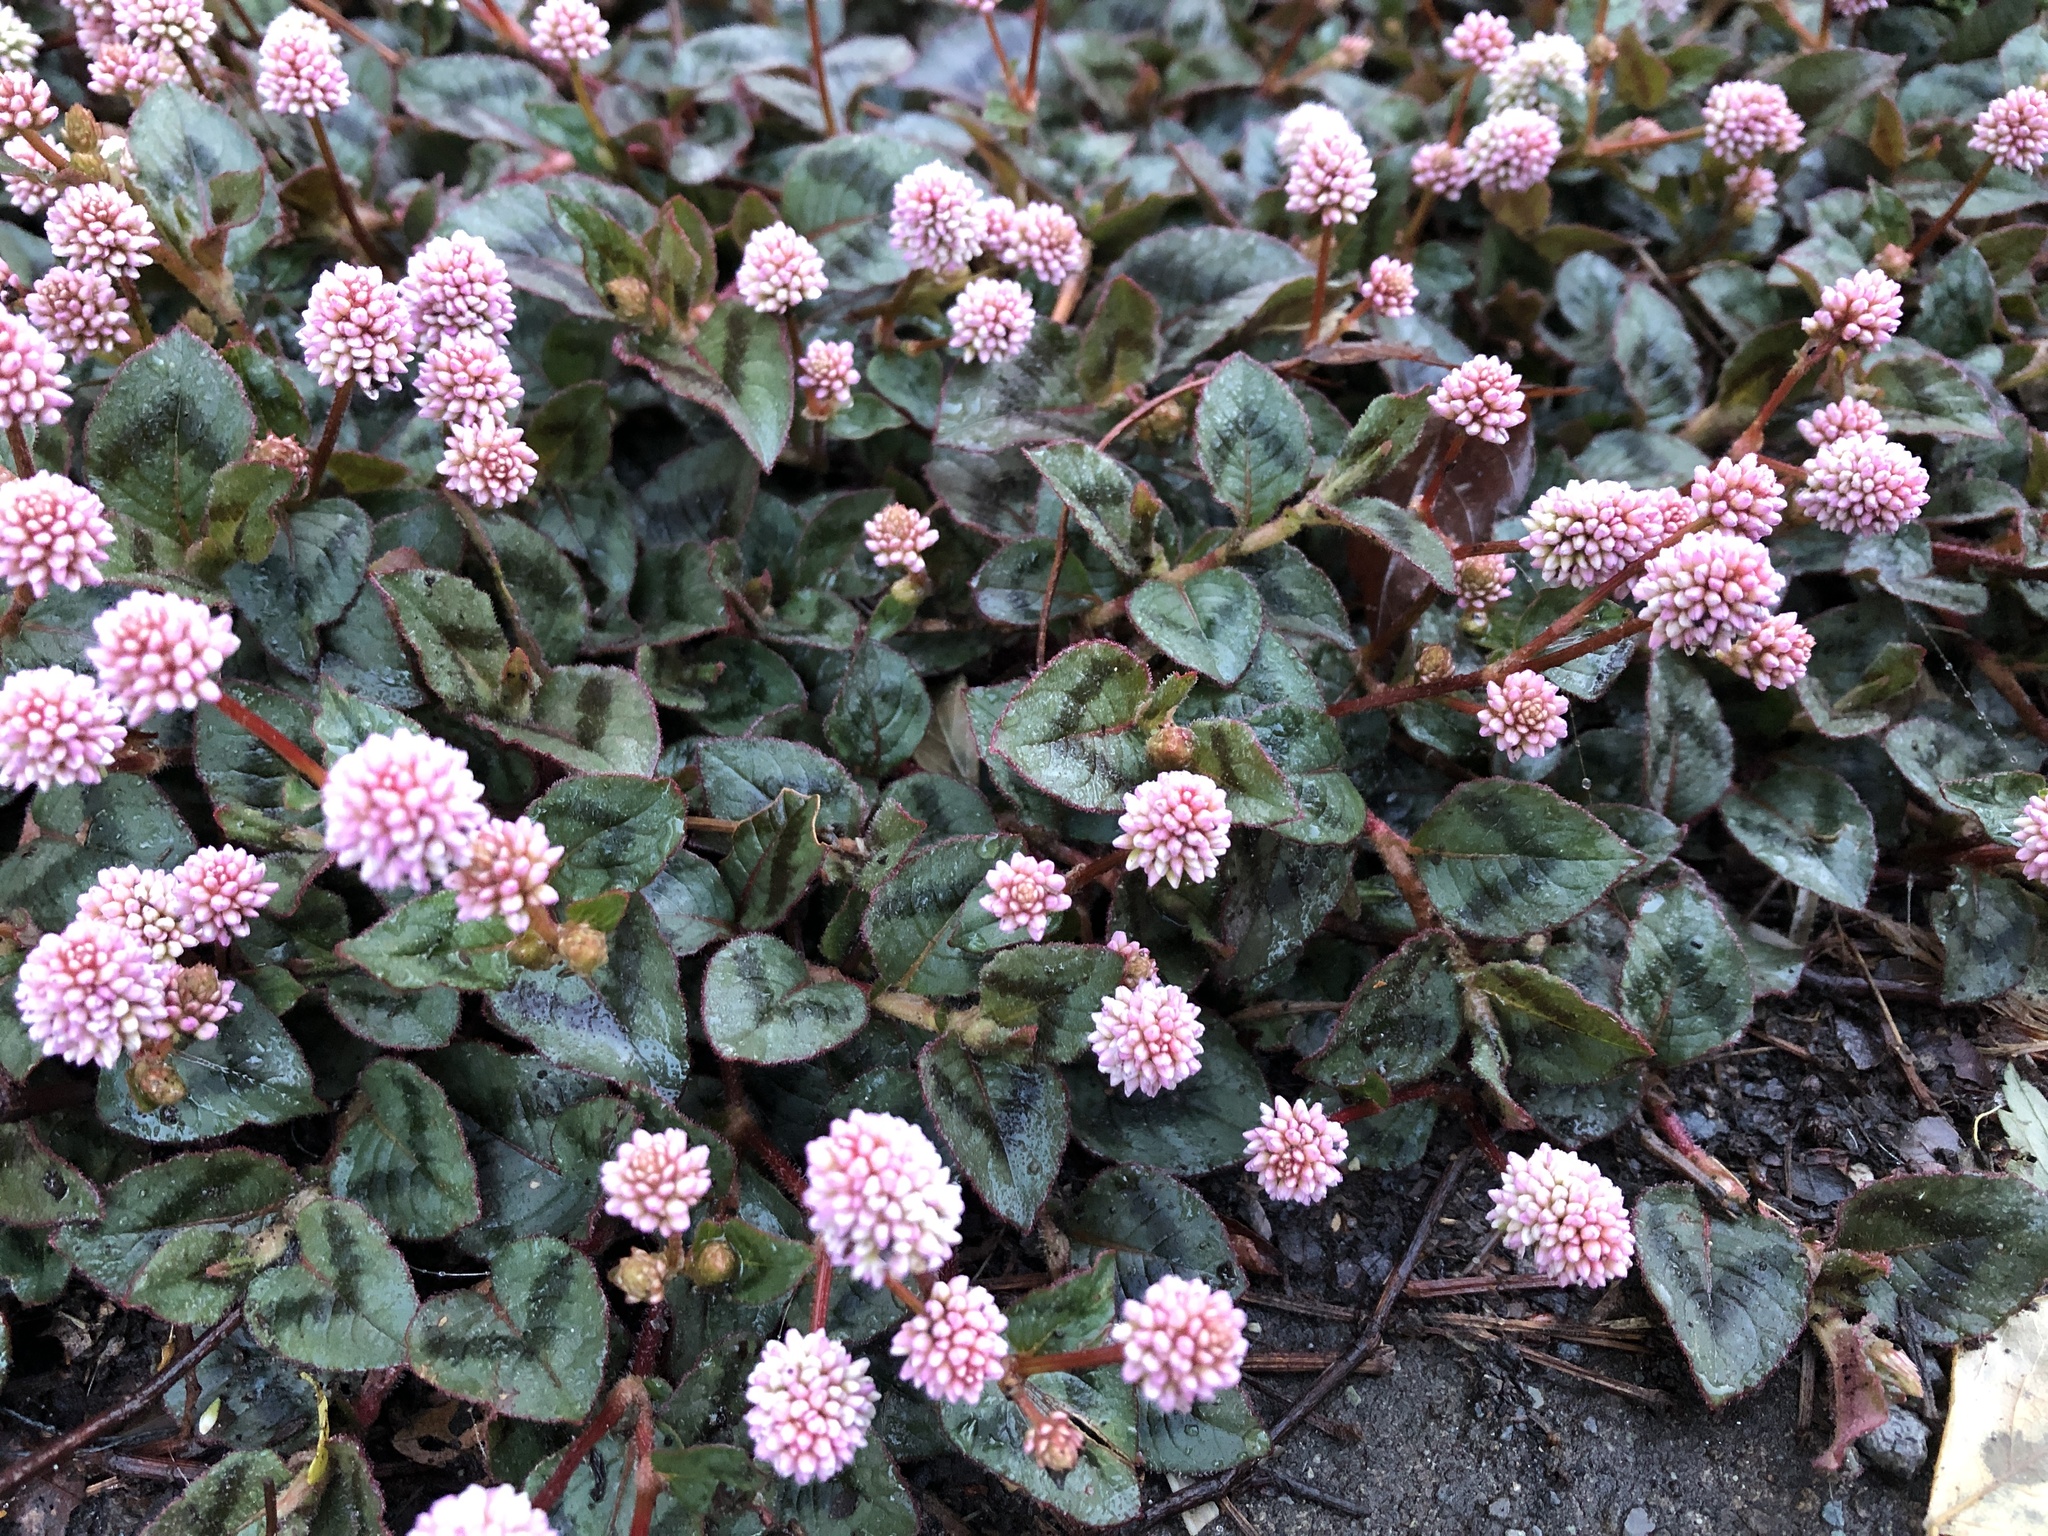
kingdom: Plantae
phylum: Tracheophyta
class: Magnoliopsida
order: Caryophyllales
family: Polygonaceae
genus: Persicaria
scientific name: Persicaria capitata
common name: Pinkhead smartweed
